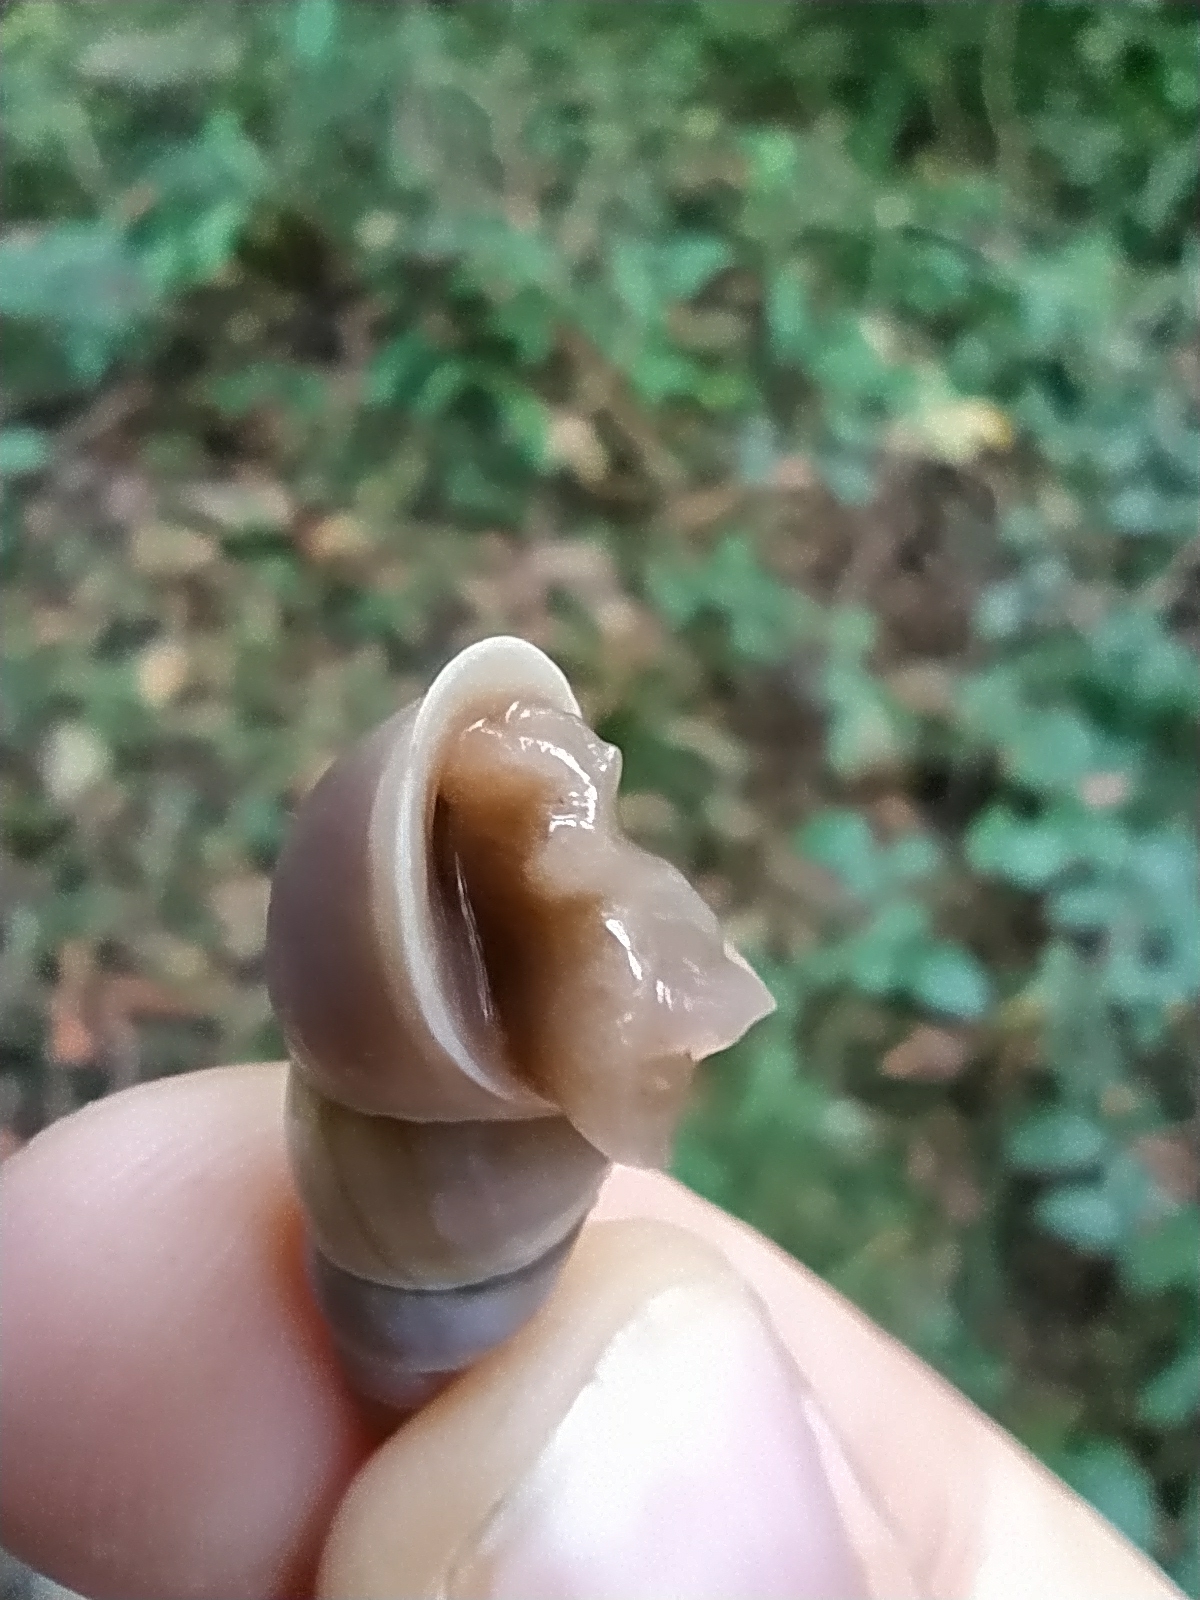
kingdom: Animalia
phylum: Mollusca
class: Gastropoda
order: Stylommatophora
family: Enidae
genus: Caucasicola
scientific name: Caucasicola raddei
